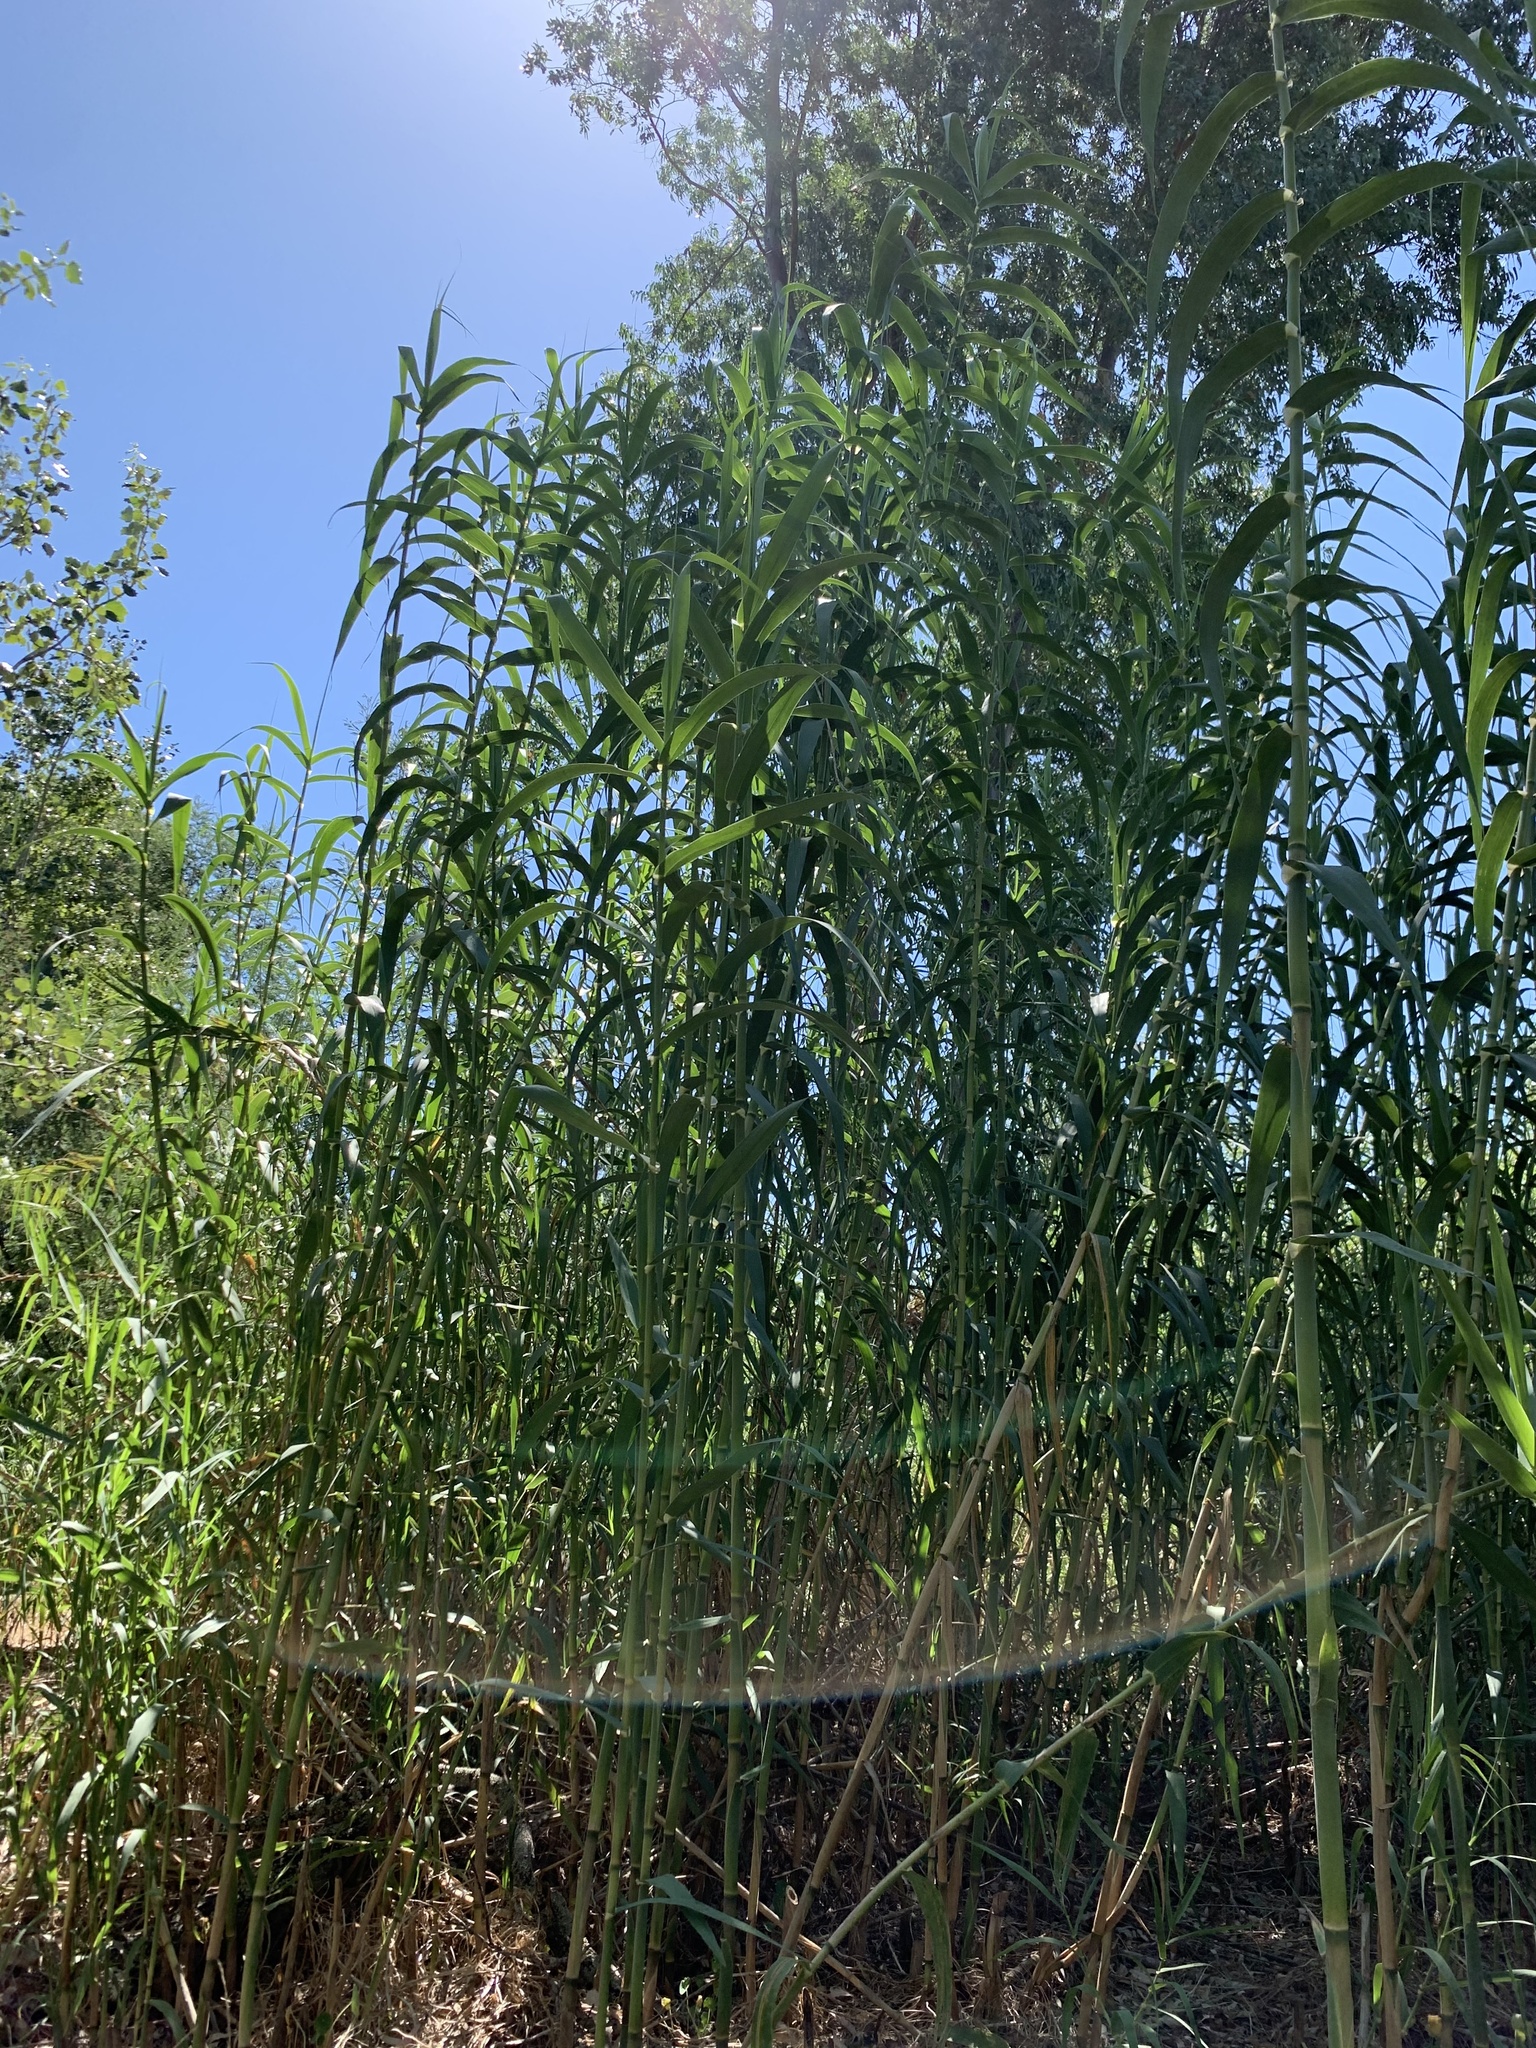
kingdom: Plantae
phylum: Tracheophyta
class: Liliopsida
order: Poales
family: Poaceae
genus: Arundo
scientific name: Arundo donax
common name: Giant reed
